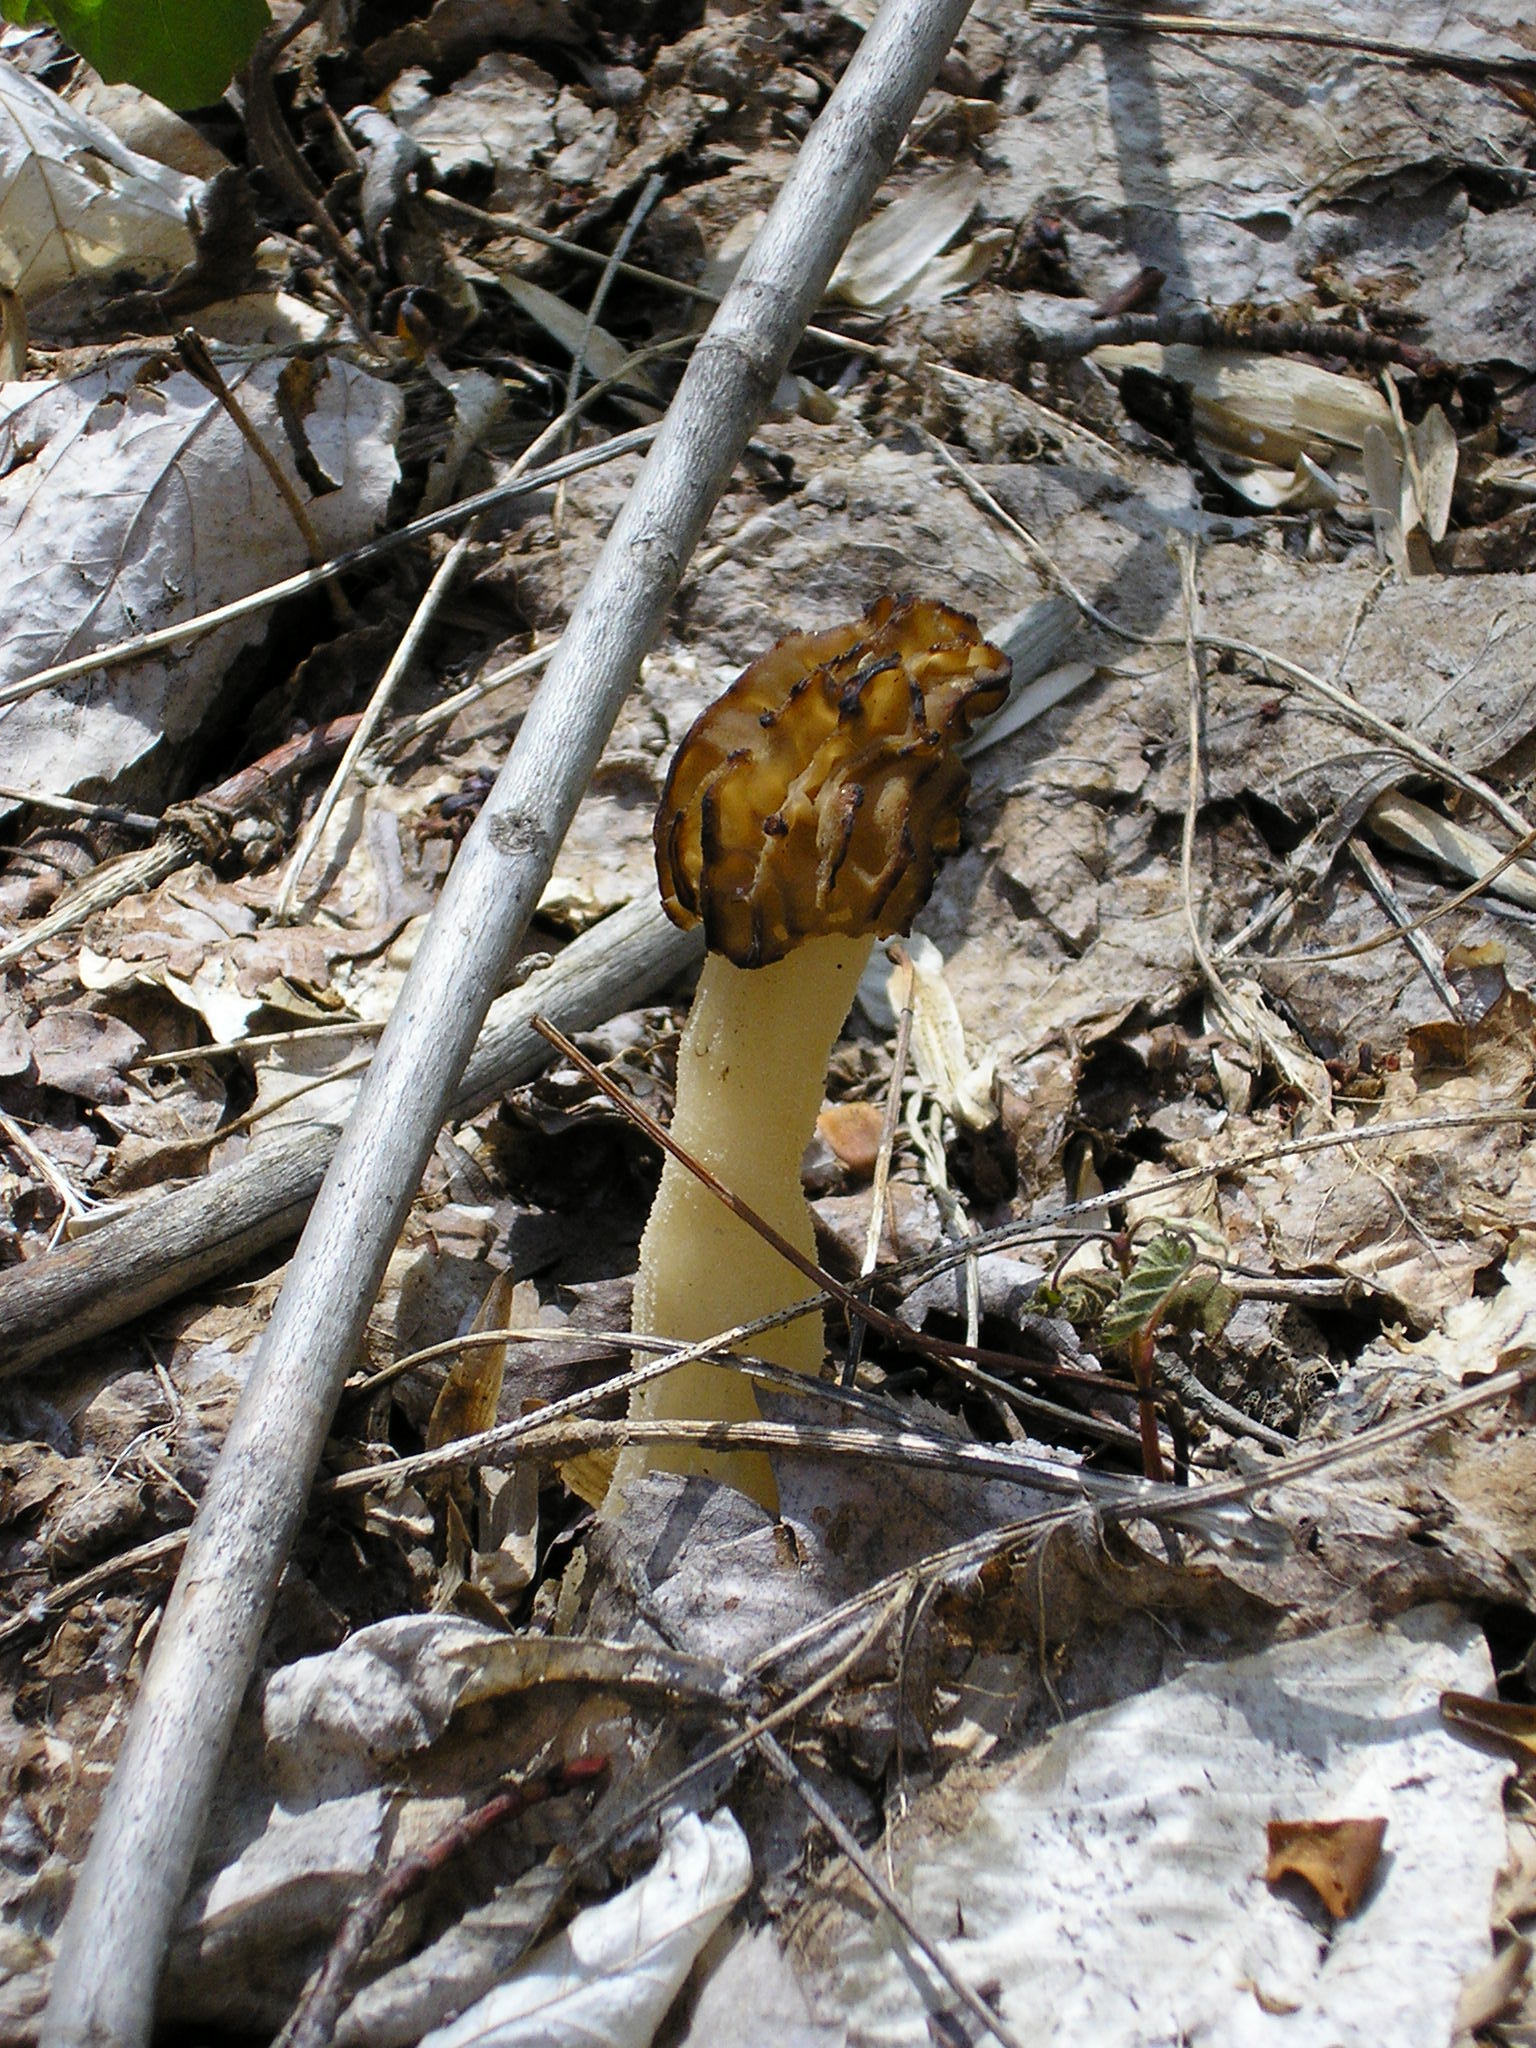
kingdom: Fungi
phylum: Ascomycota
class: Pezizomycetes
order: Pezizales
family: Morchellaceae
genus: Morchella
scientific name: Morchella punctipes
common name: Half-free morel
